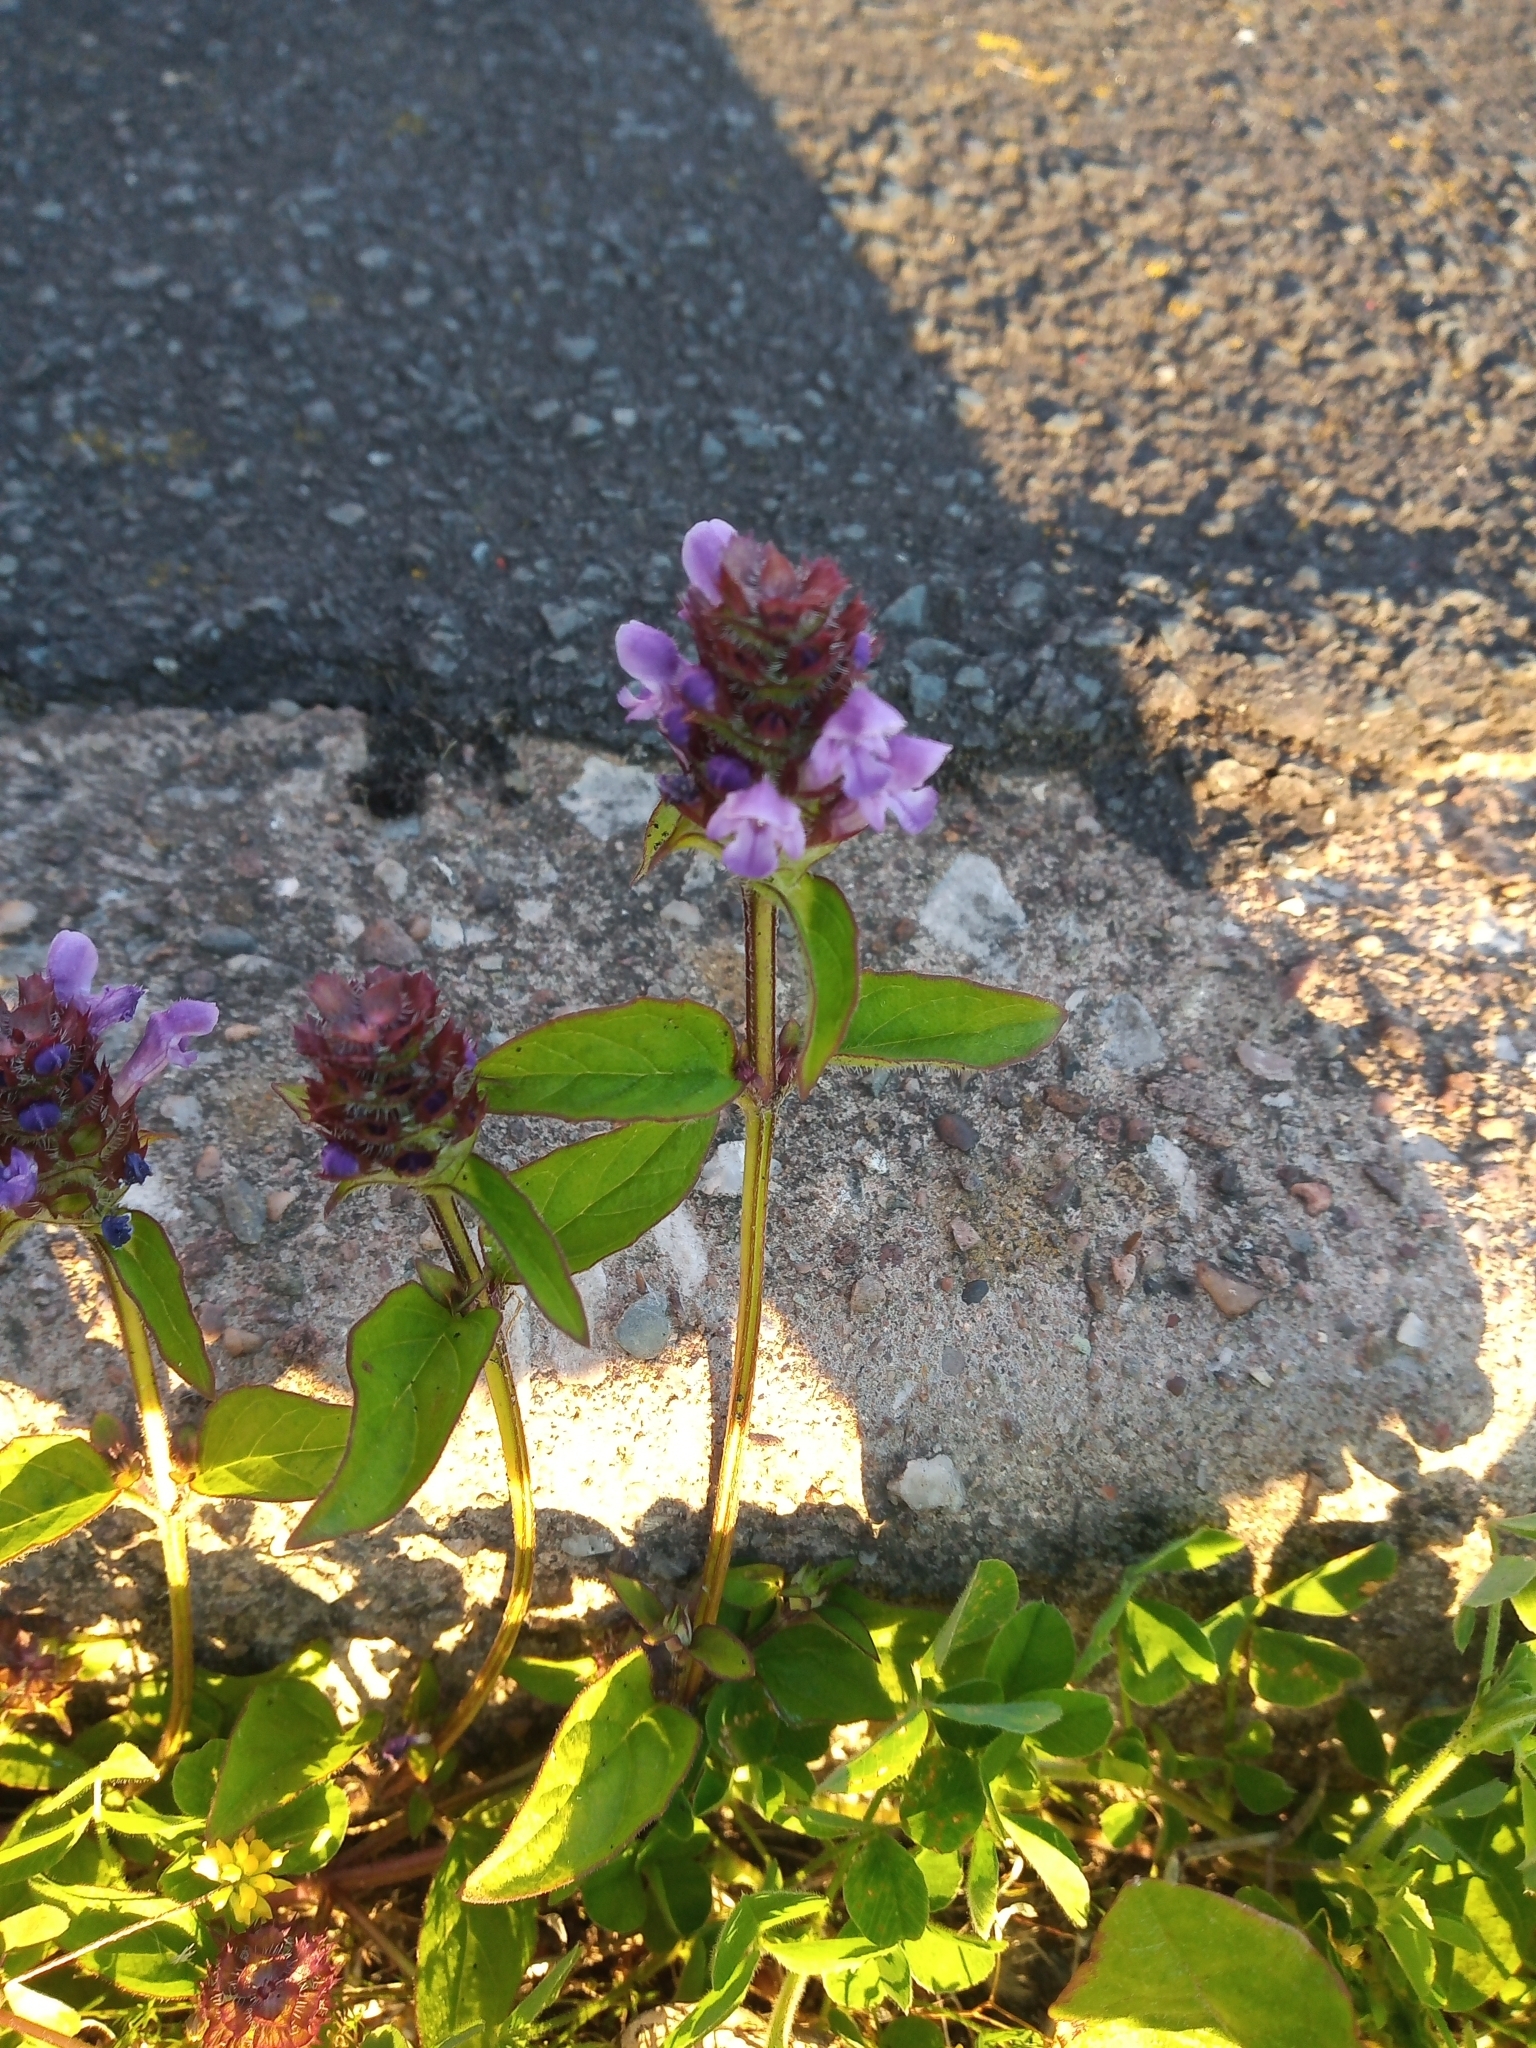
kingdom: Plantae
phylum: Tracheophyta
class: Magnoliopsida
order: Lamiales
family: Lamiaceae
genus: Prunella
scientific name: Prunella vulgaris
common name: Heal-all
